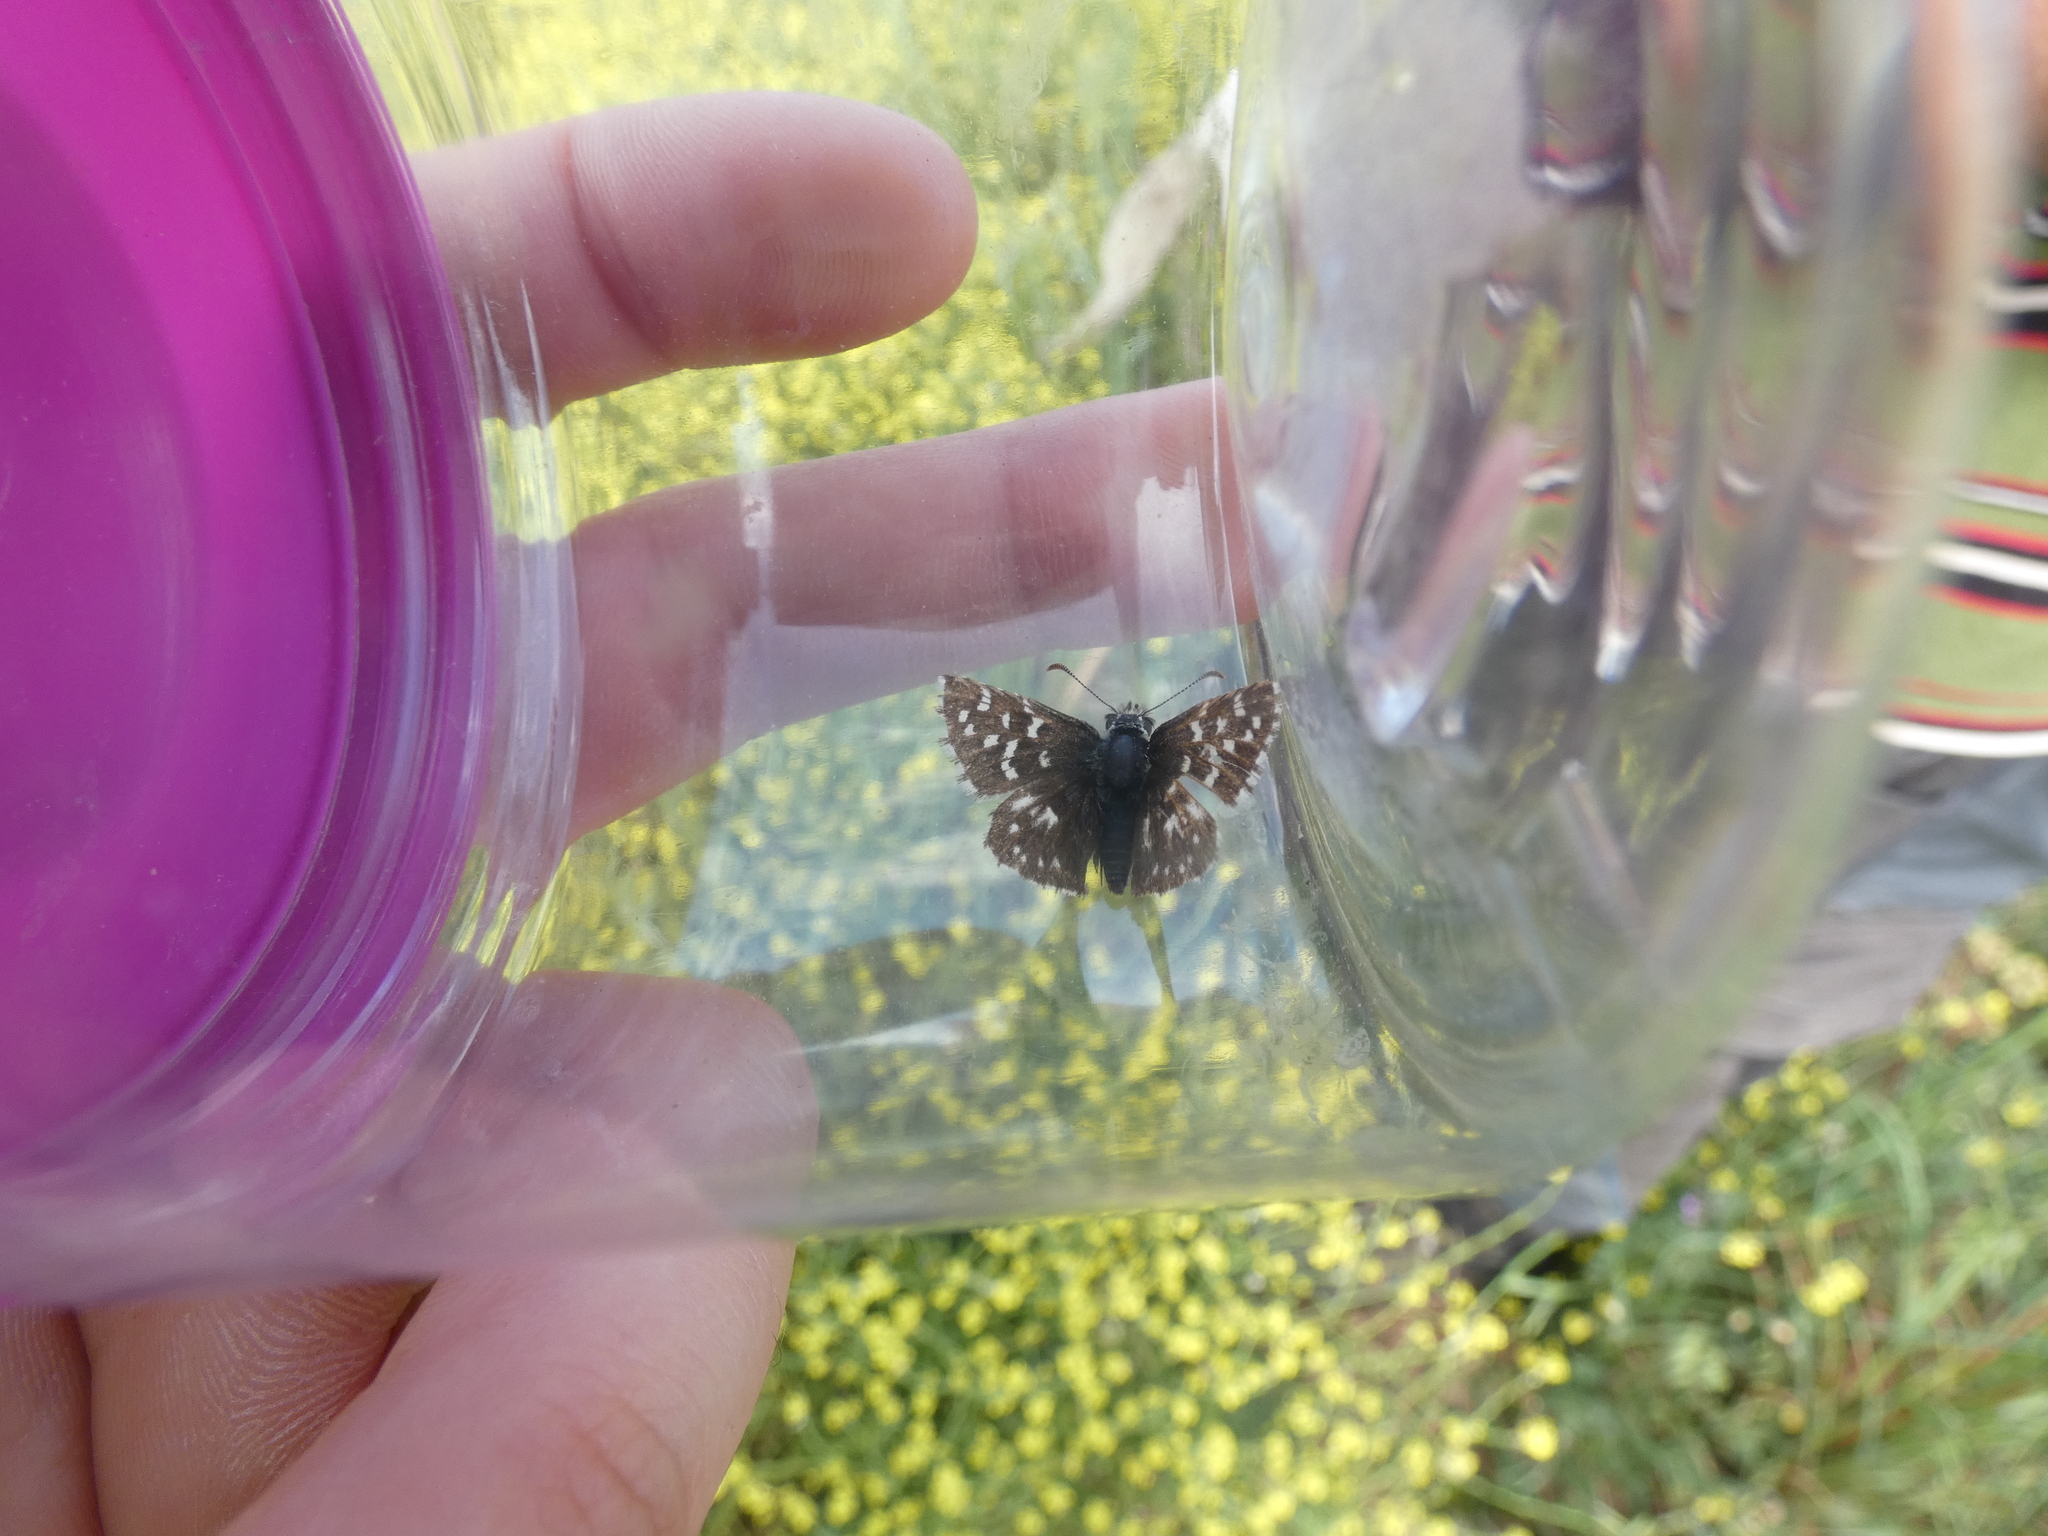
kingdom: Animalia
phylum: Arthropoda
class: Insecta
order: Lepidoptera
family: Hesperiidae
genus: Pyrgus
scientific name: Pyrgus malvoides
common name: Southern grizzled skipper
